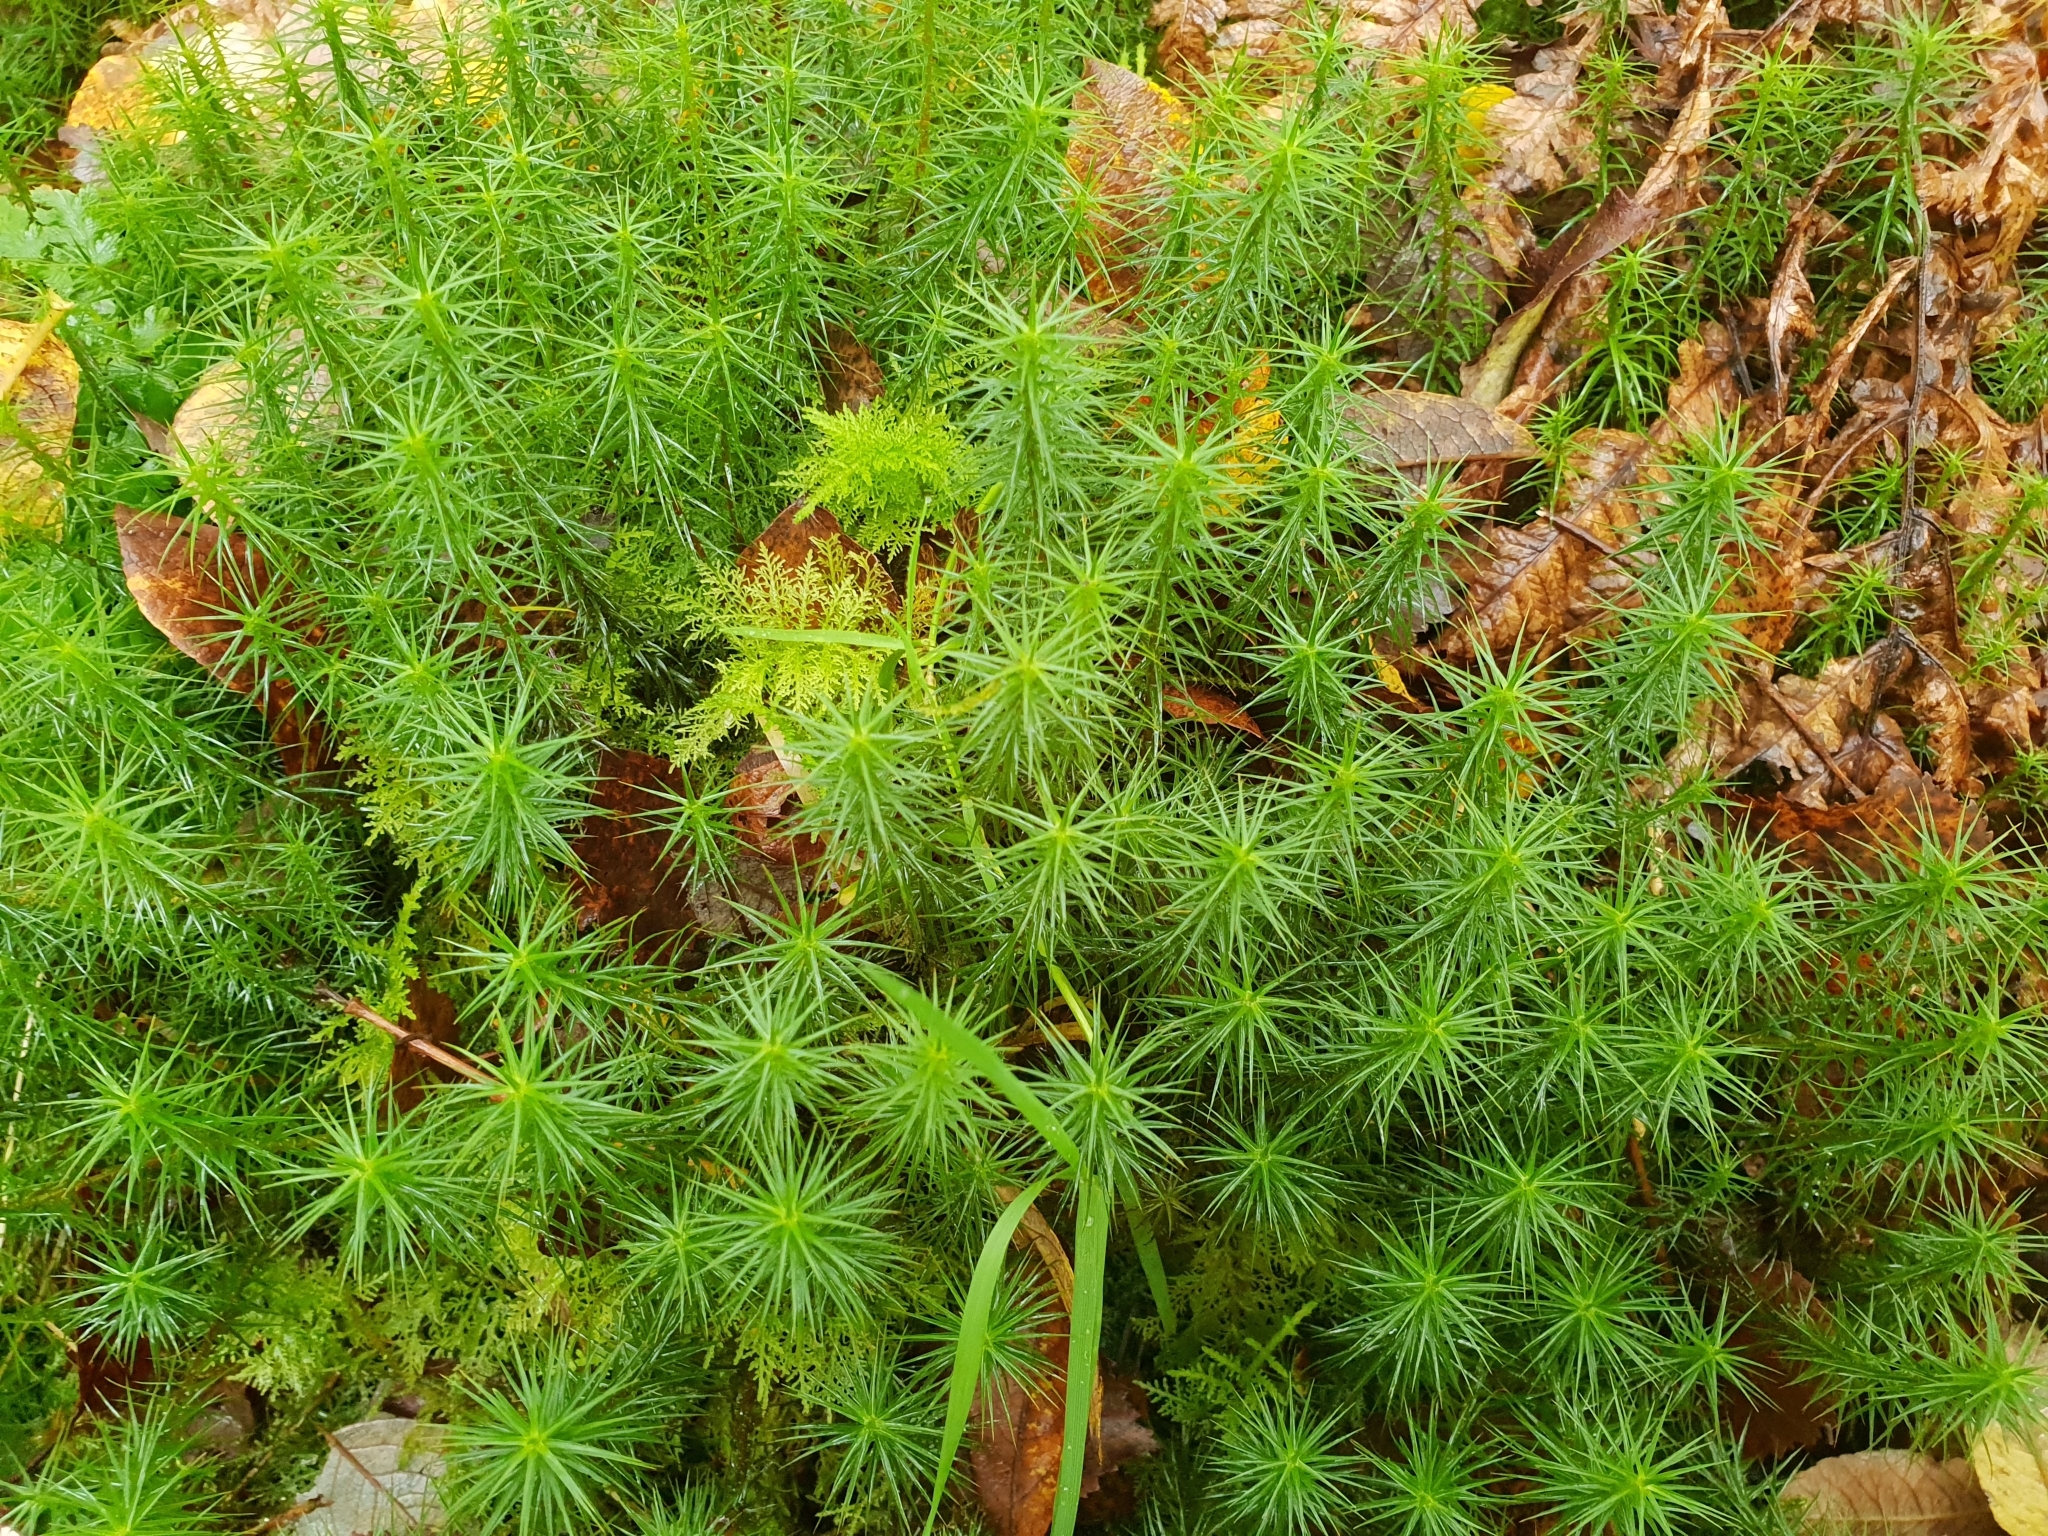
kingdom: Plantae
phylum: Bryophyta
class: Polytrichopsida
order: Polytrichales
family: Polytrichaceae
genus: Polytrichum
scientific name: Polytrichum commune
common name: Common haircap
